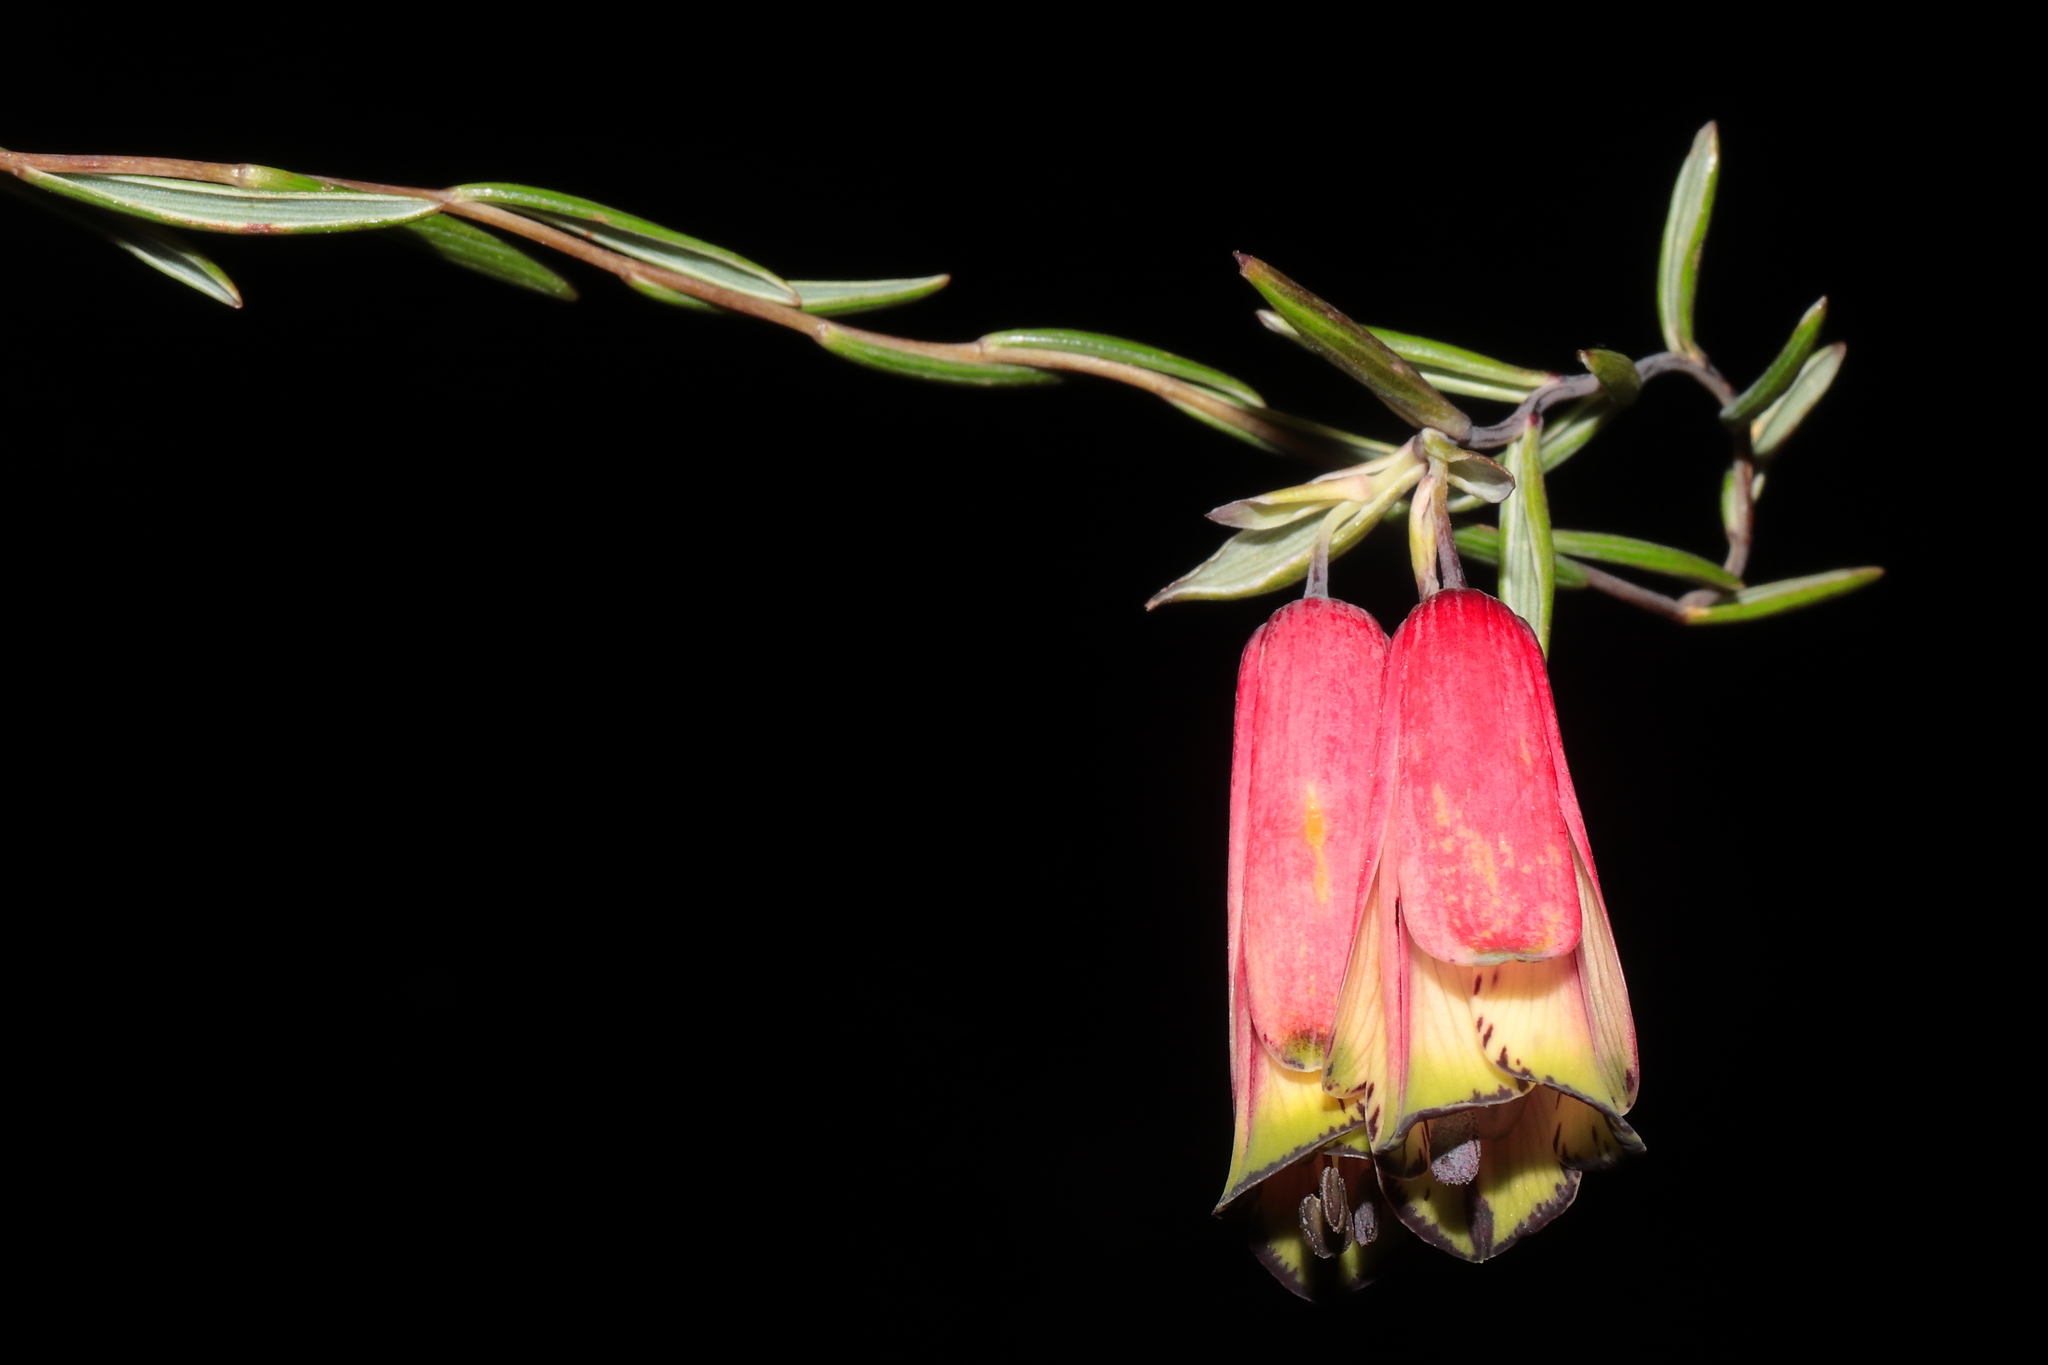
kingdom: Plantae
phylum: Tracheophyta
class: Liliopsida
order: Liliales
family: Alstroemeriaceae
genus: Bomarea
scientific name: Bomarea dulcis
